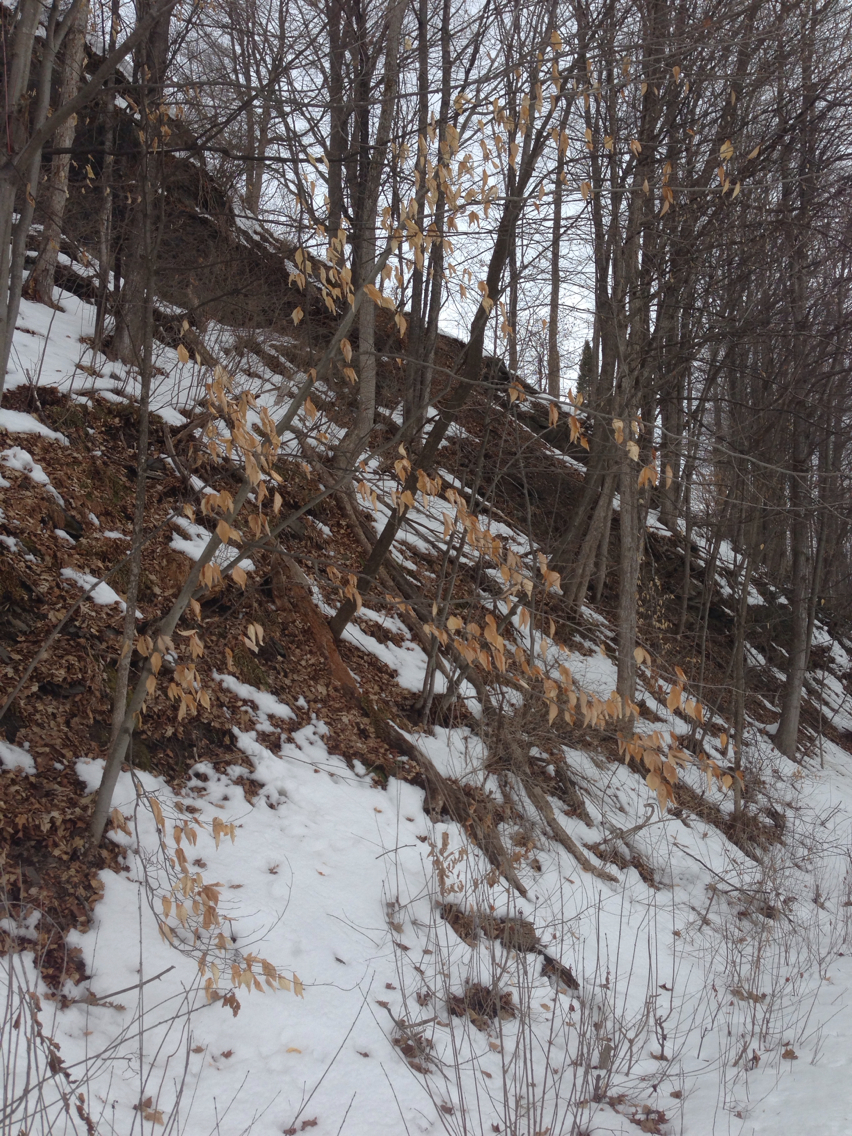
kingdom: Plantae
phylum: Tracheophyta
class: Magnoliopsida
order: Fagales
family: Fagaceae
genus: Fagus
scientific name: Fagus grandifolia
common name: American beech
